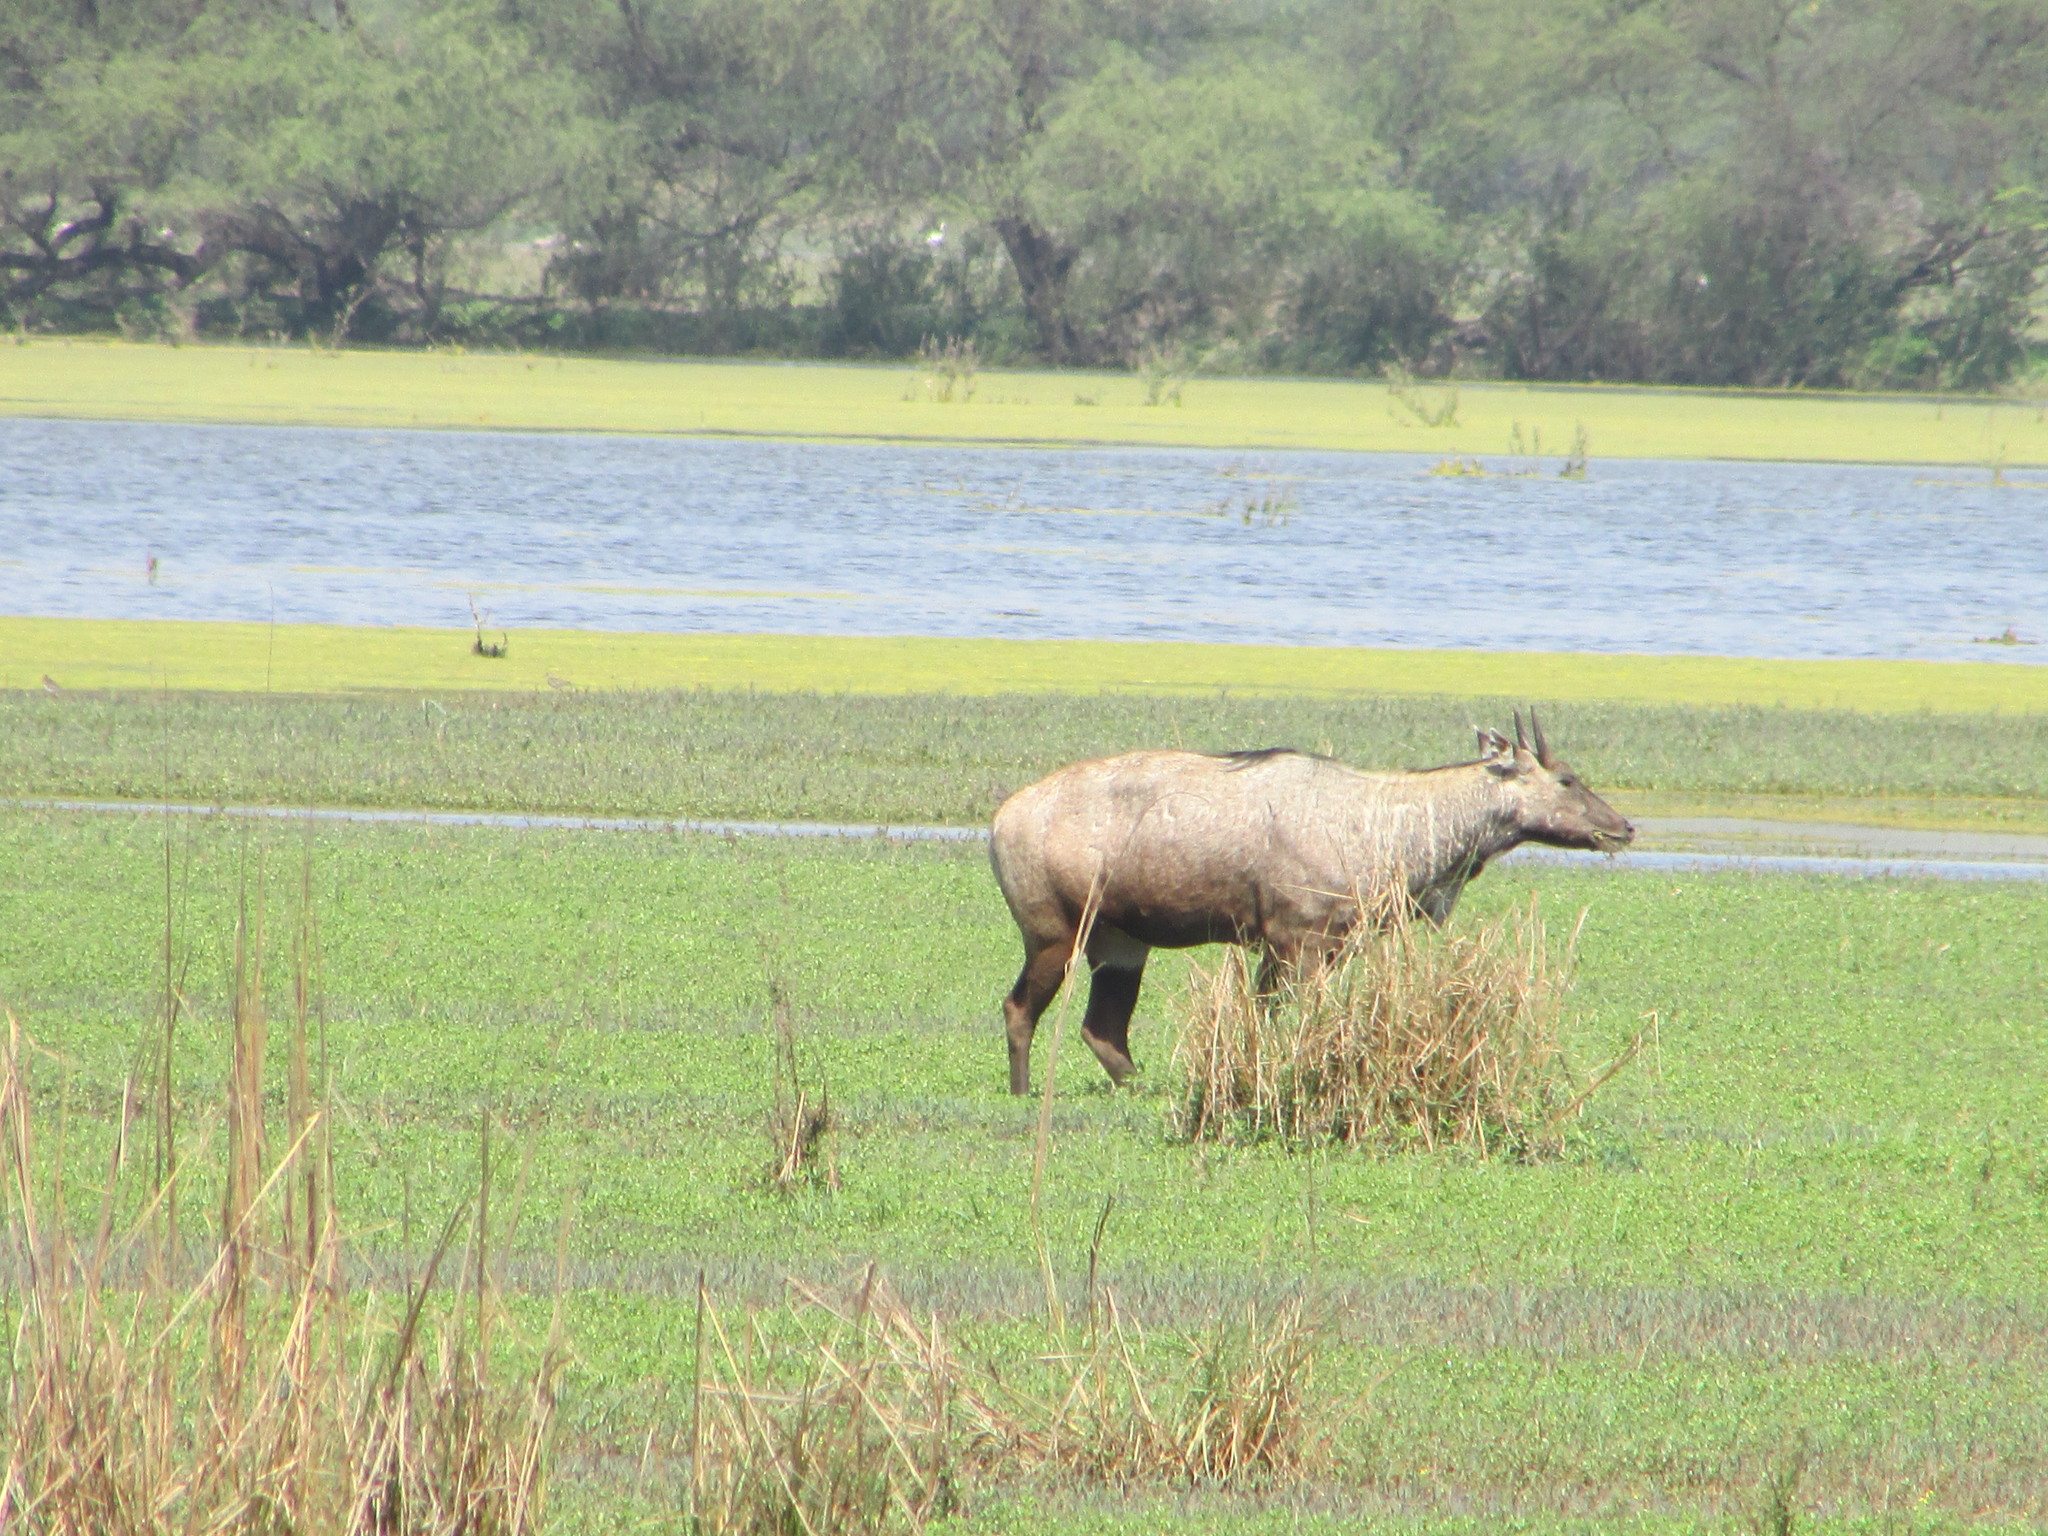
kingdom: Animalia
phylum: Chordata
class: Mammalia
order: Artiodactyla
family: Bovidae
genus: Boselaphus
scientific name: Boselaphus tragocamelus
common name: Nilgai
